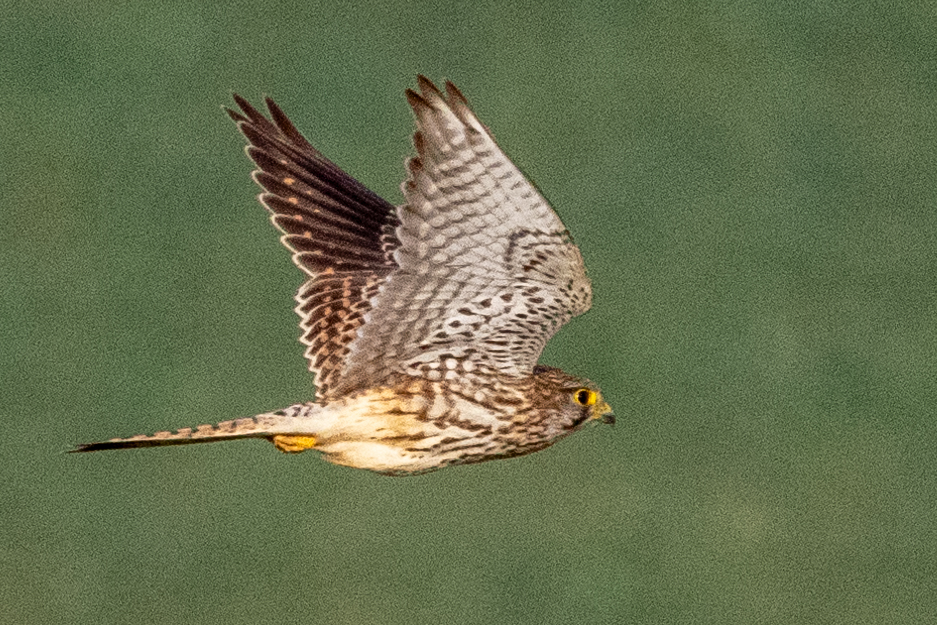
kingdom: Animalia
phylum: Chordata
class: Aves
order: Falconiformes
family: Falconidae
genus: Falco
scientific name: Falco tinnunculus
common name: Common kestrel
